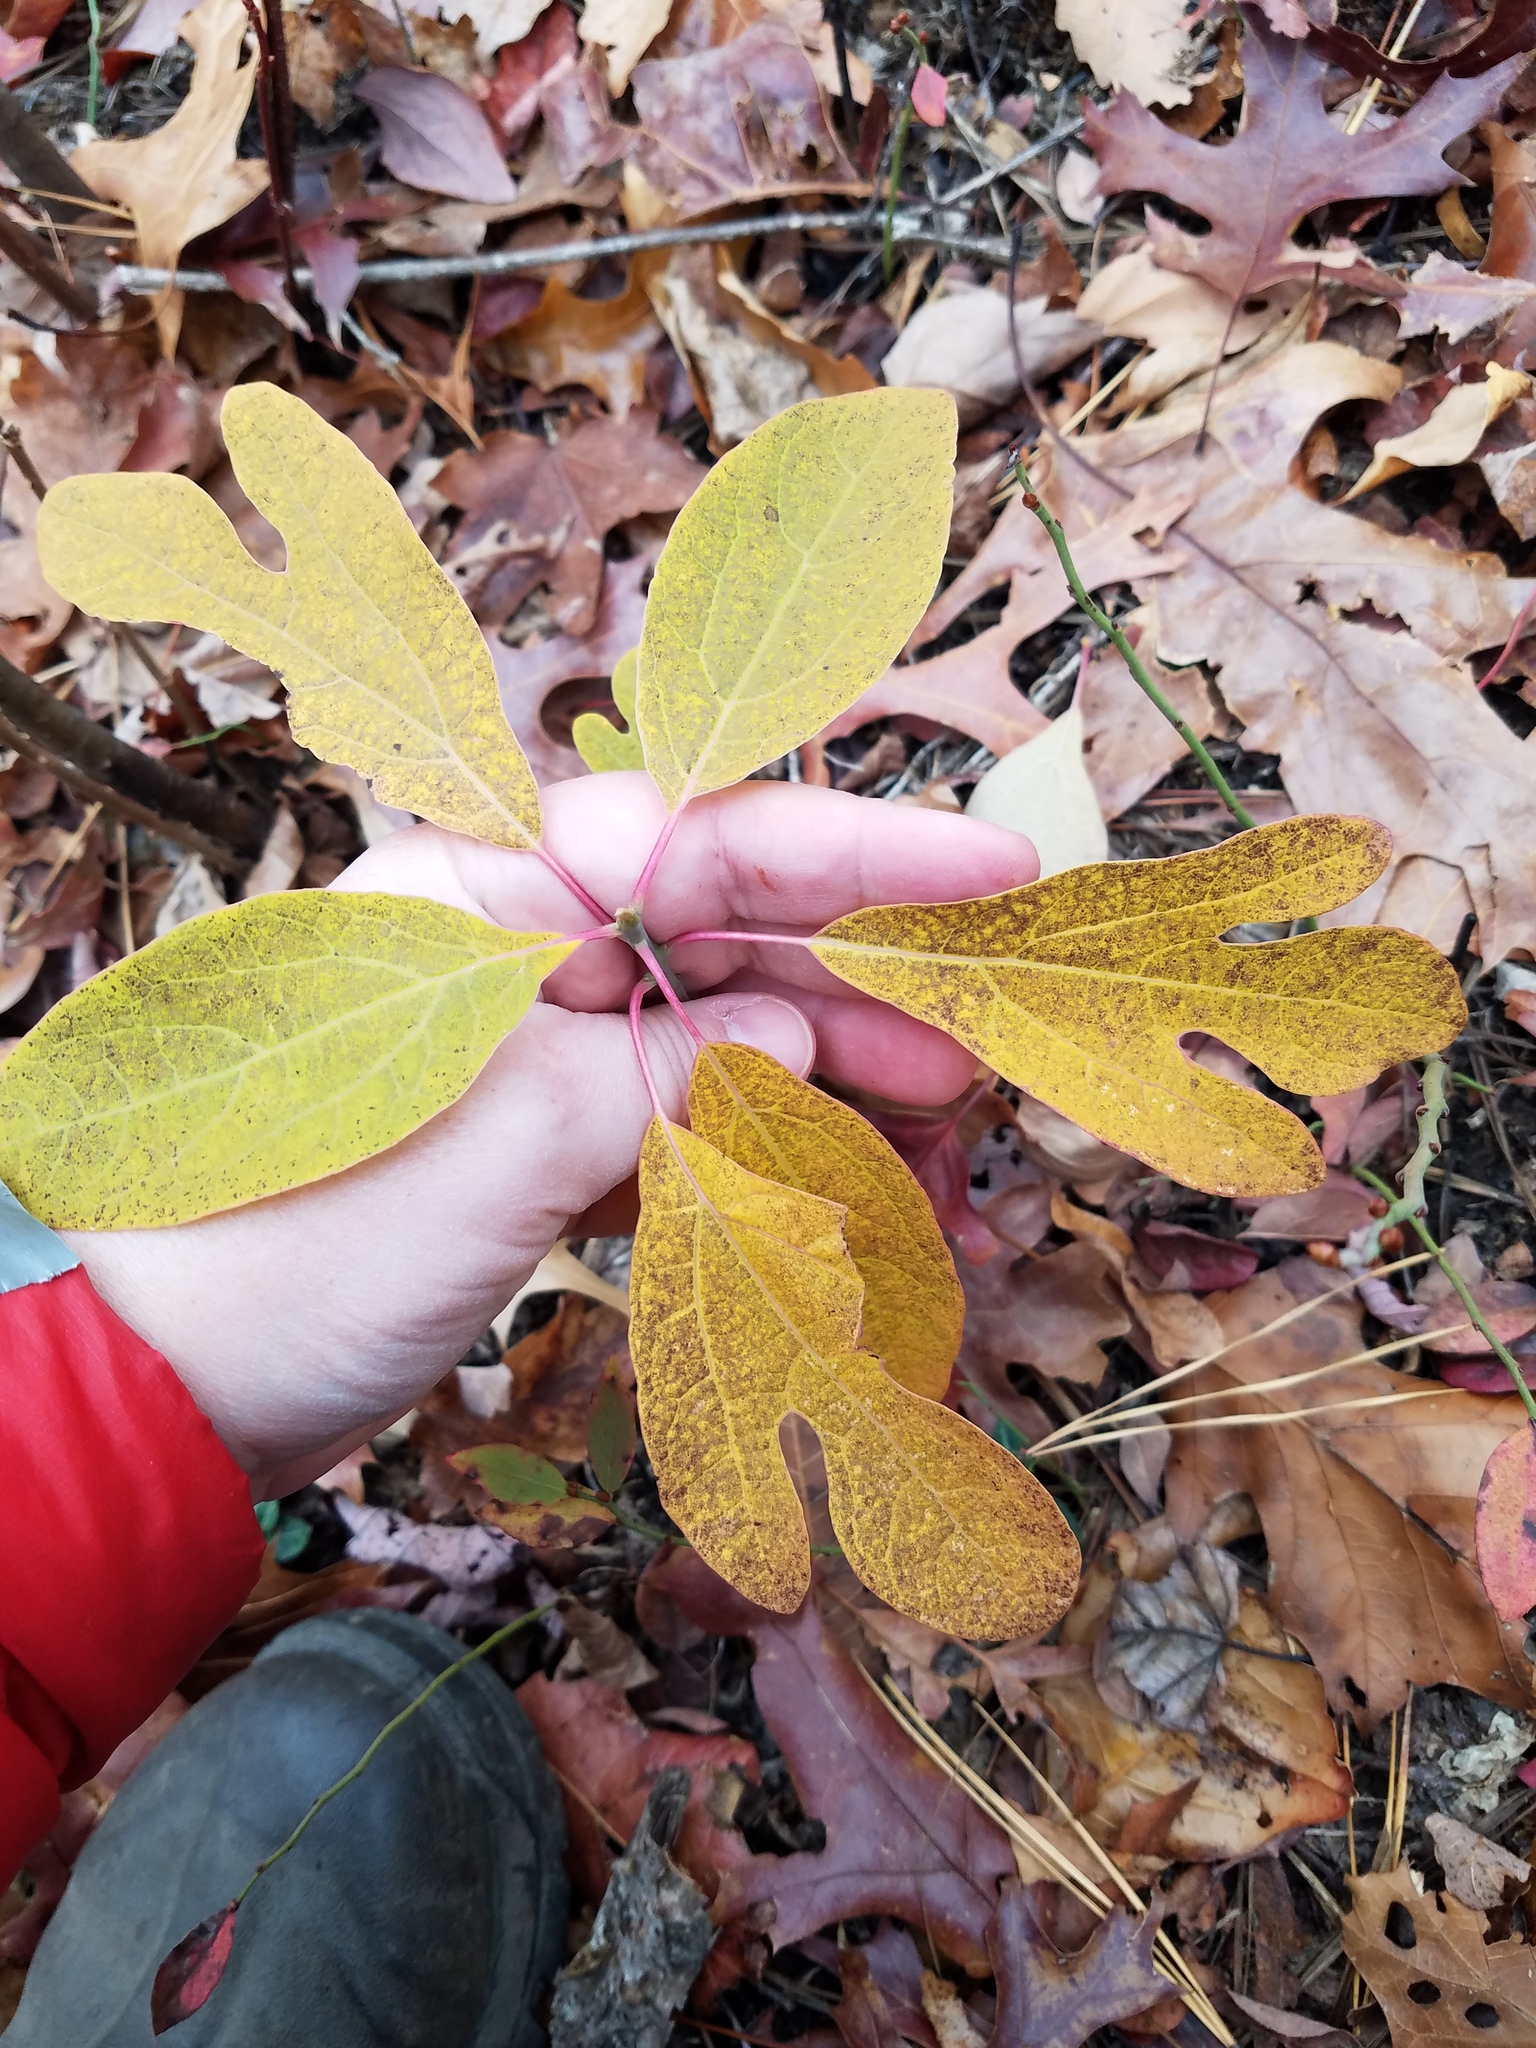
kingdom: Plantae
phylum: Tracheophyta
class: Magnoliopsida
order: Laurales
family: Lauraceae
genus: Sassafras
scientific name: Sassafras albidum
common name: Sassafras
